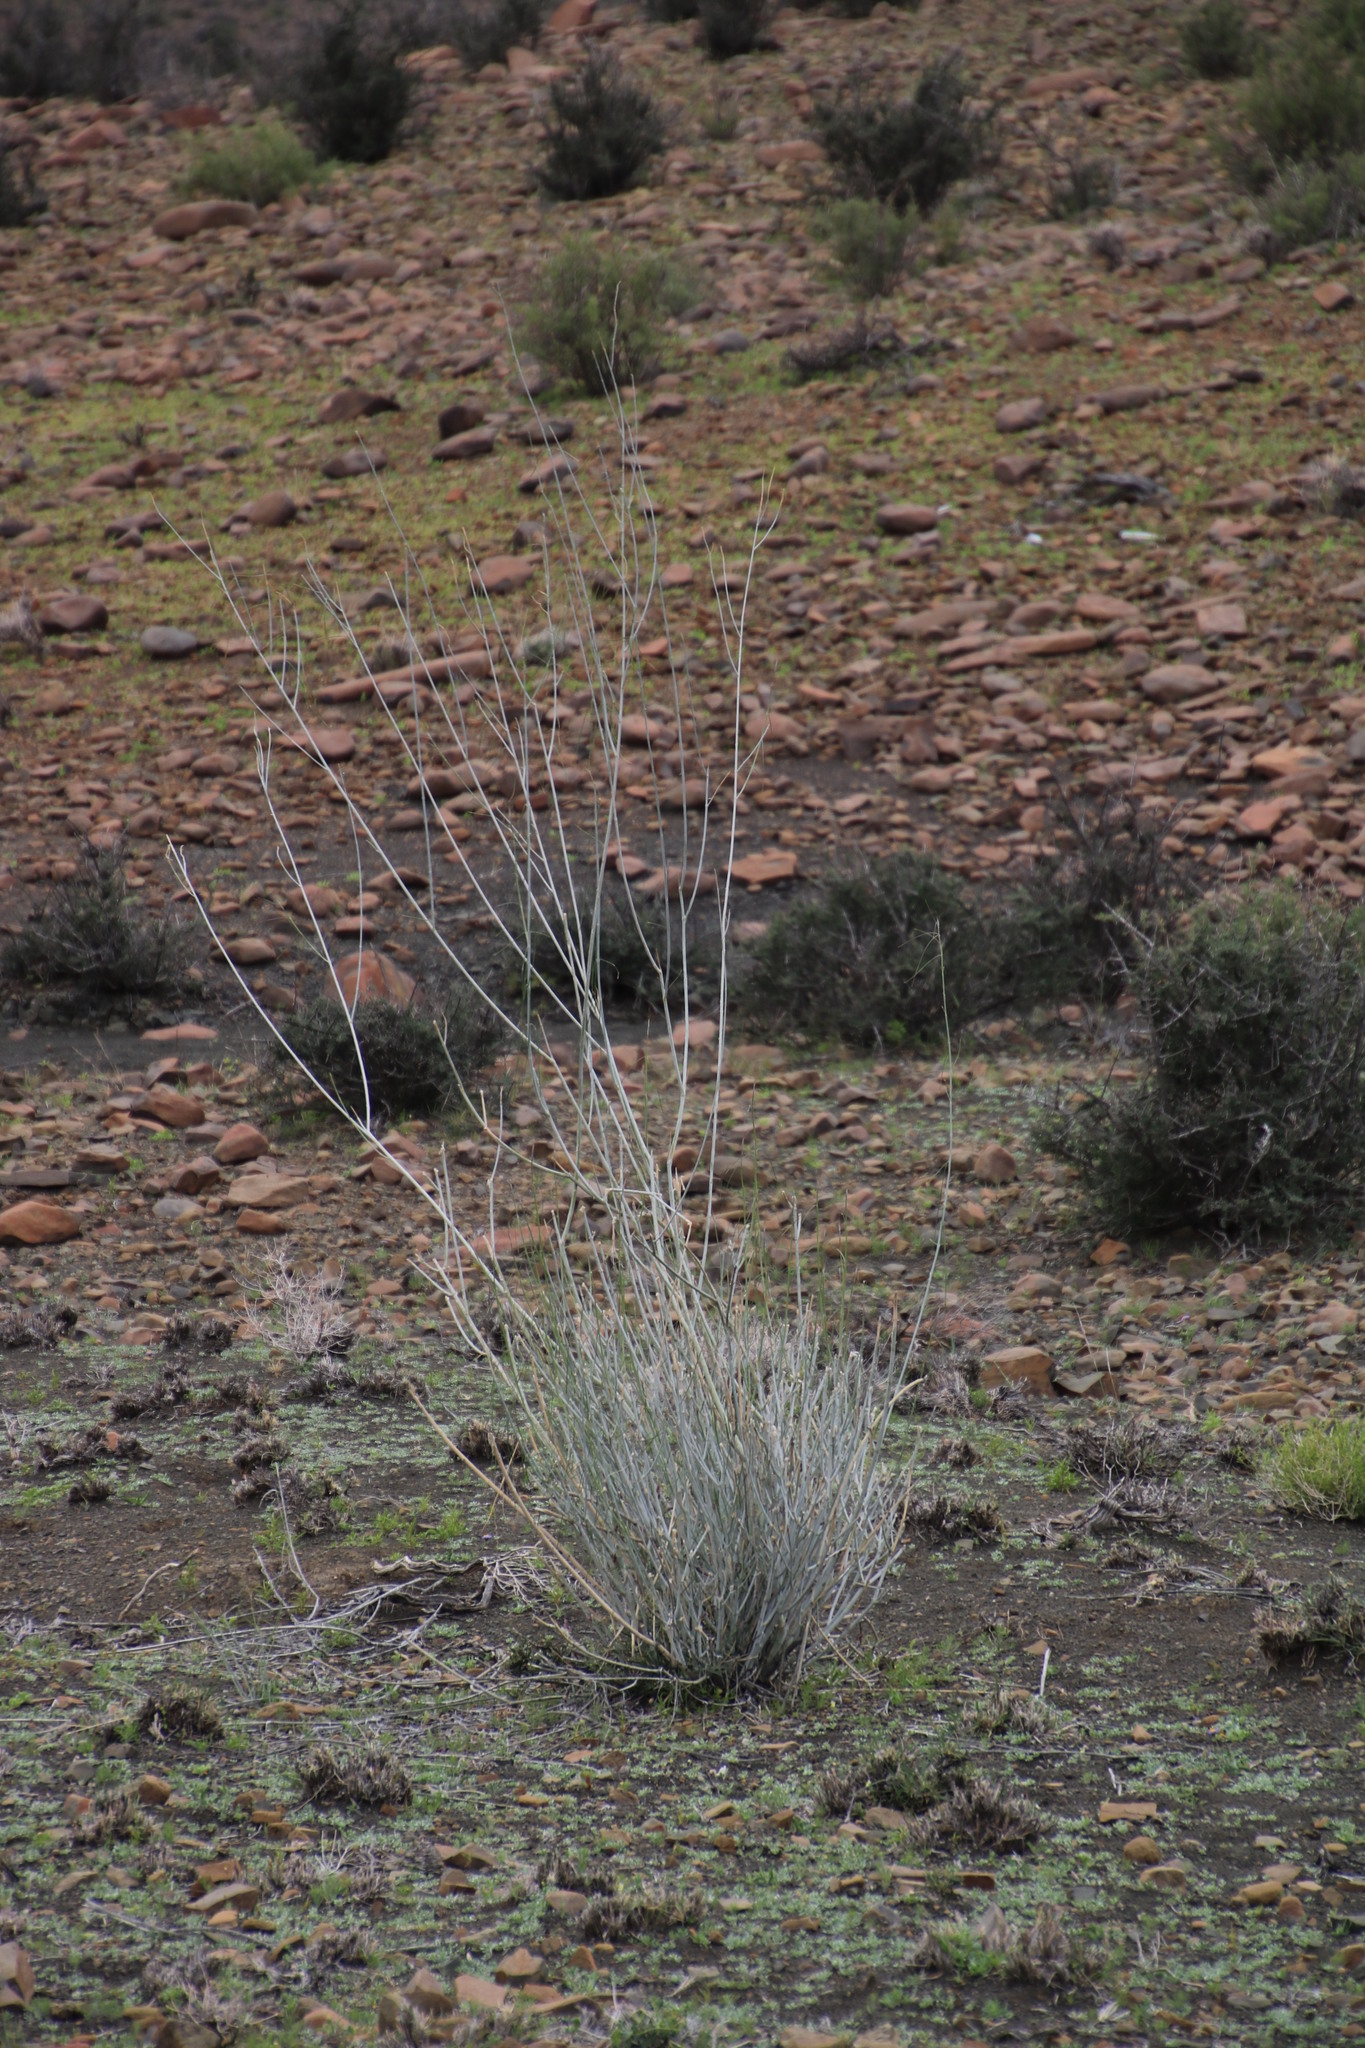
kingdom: Plantae
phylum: Tracheophyta
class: Magnoliopsida
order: Gentianales
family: Apocynaceae
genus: Gomphocarpus
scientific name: Gomphocarpus filiformis
